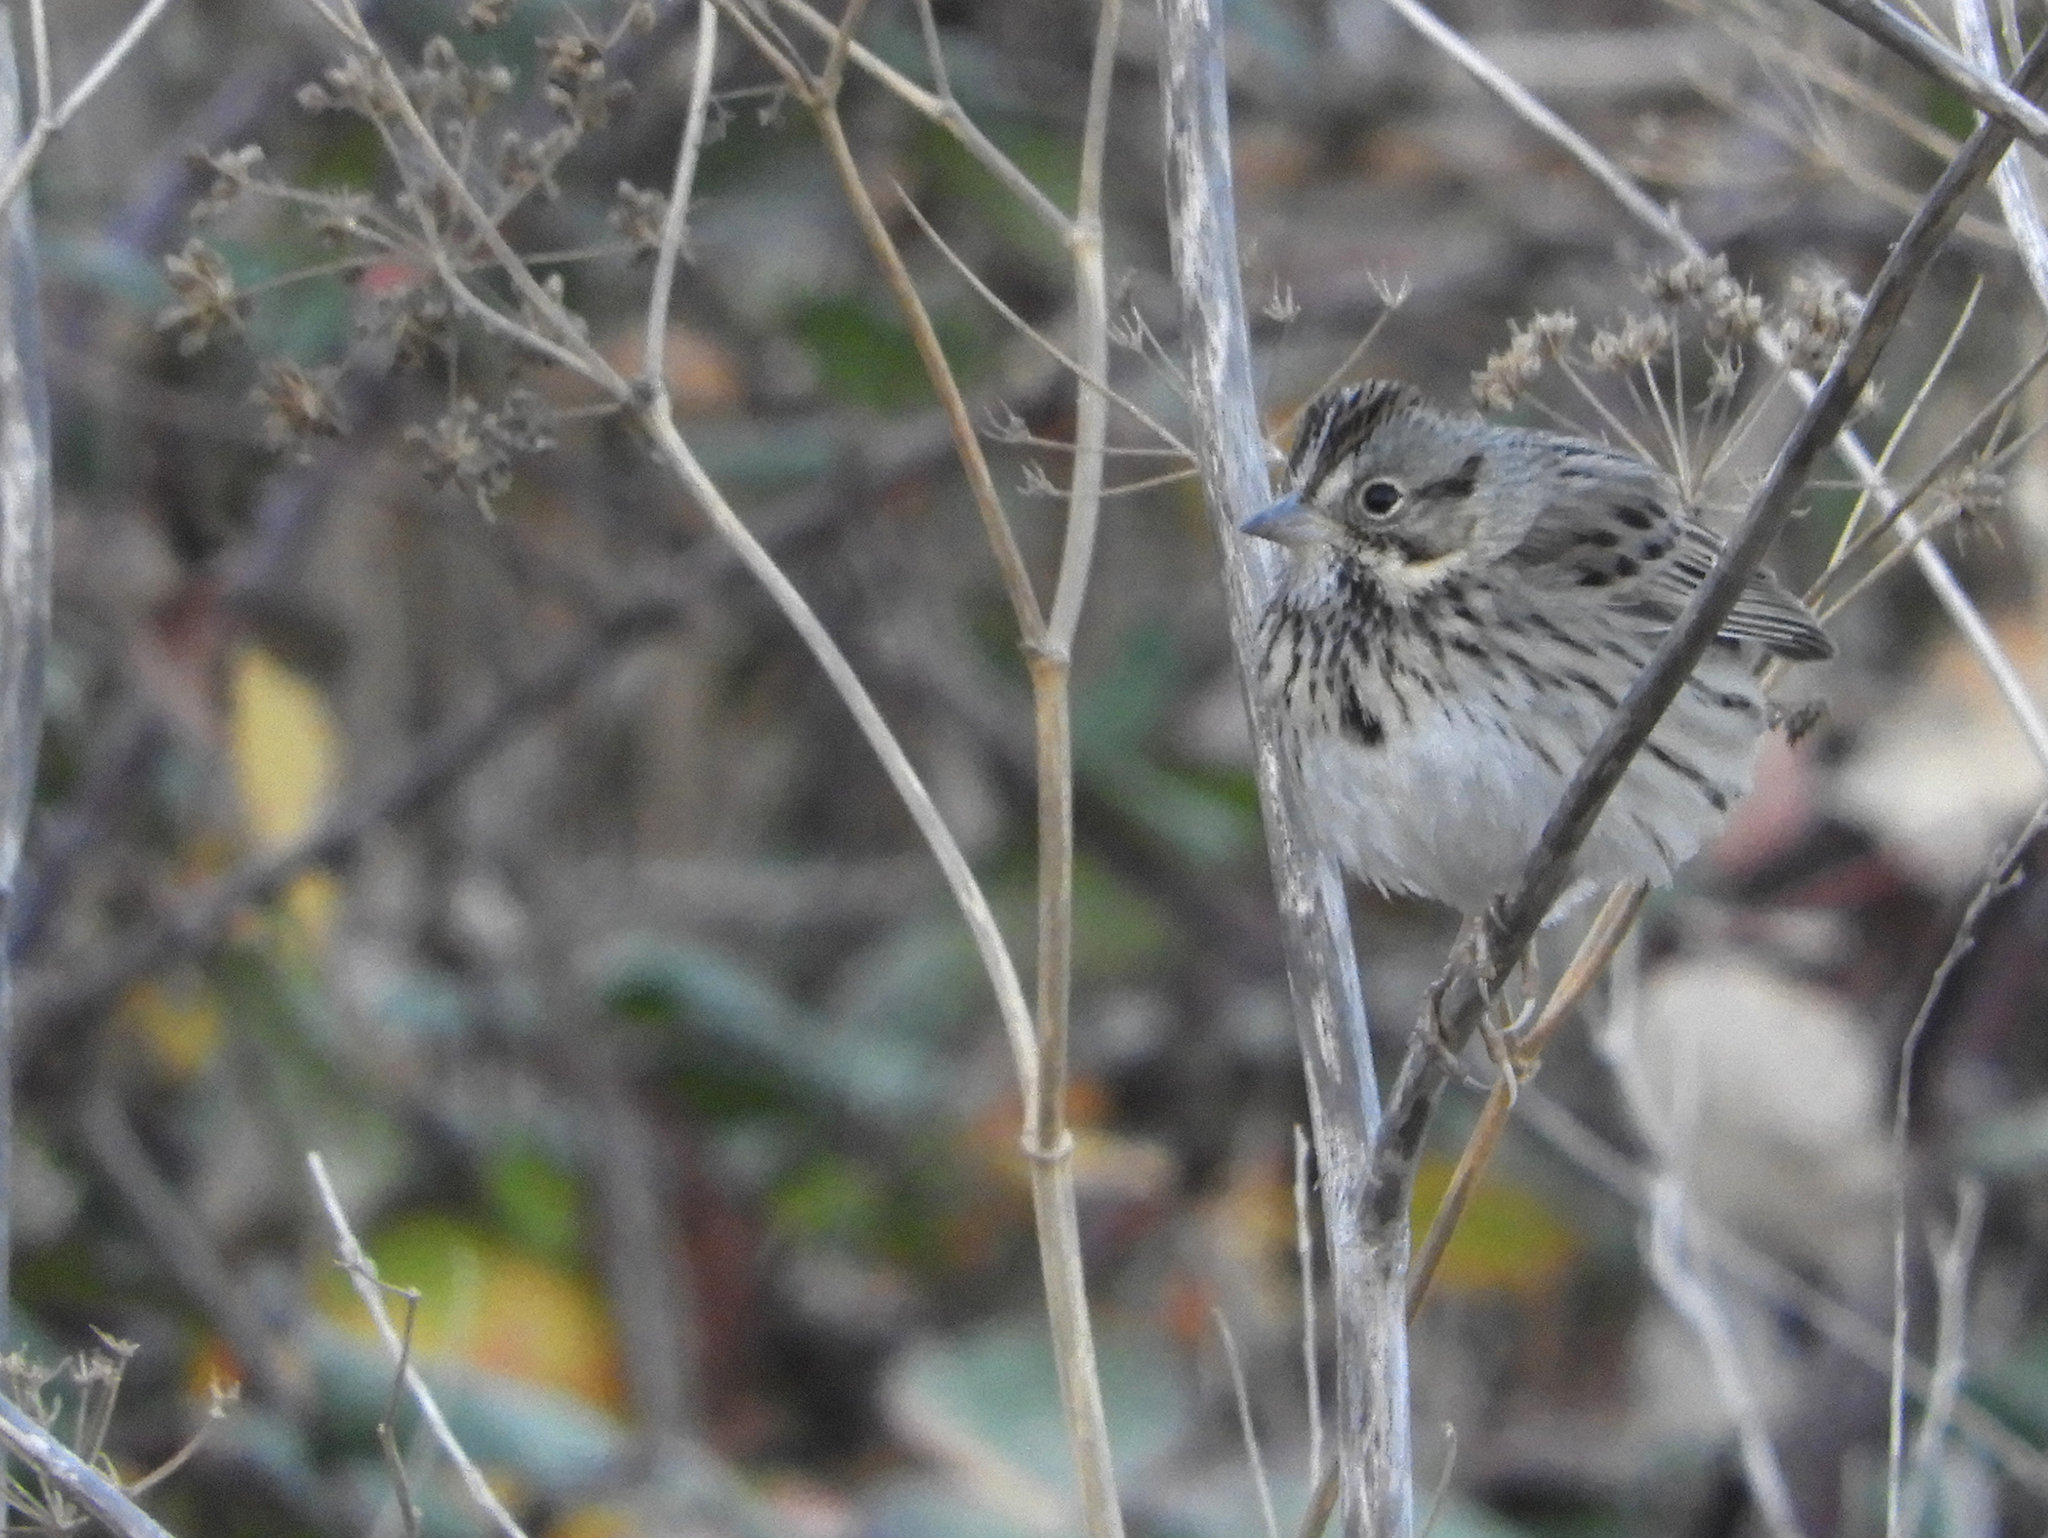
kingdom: Animalia
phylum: Chordata
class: Aves
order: Passeriformes
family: Passerellidae
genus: Melospiza
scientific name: Melospiza lincolnii
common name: Lincoln's sparrow
